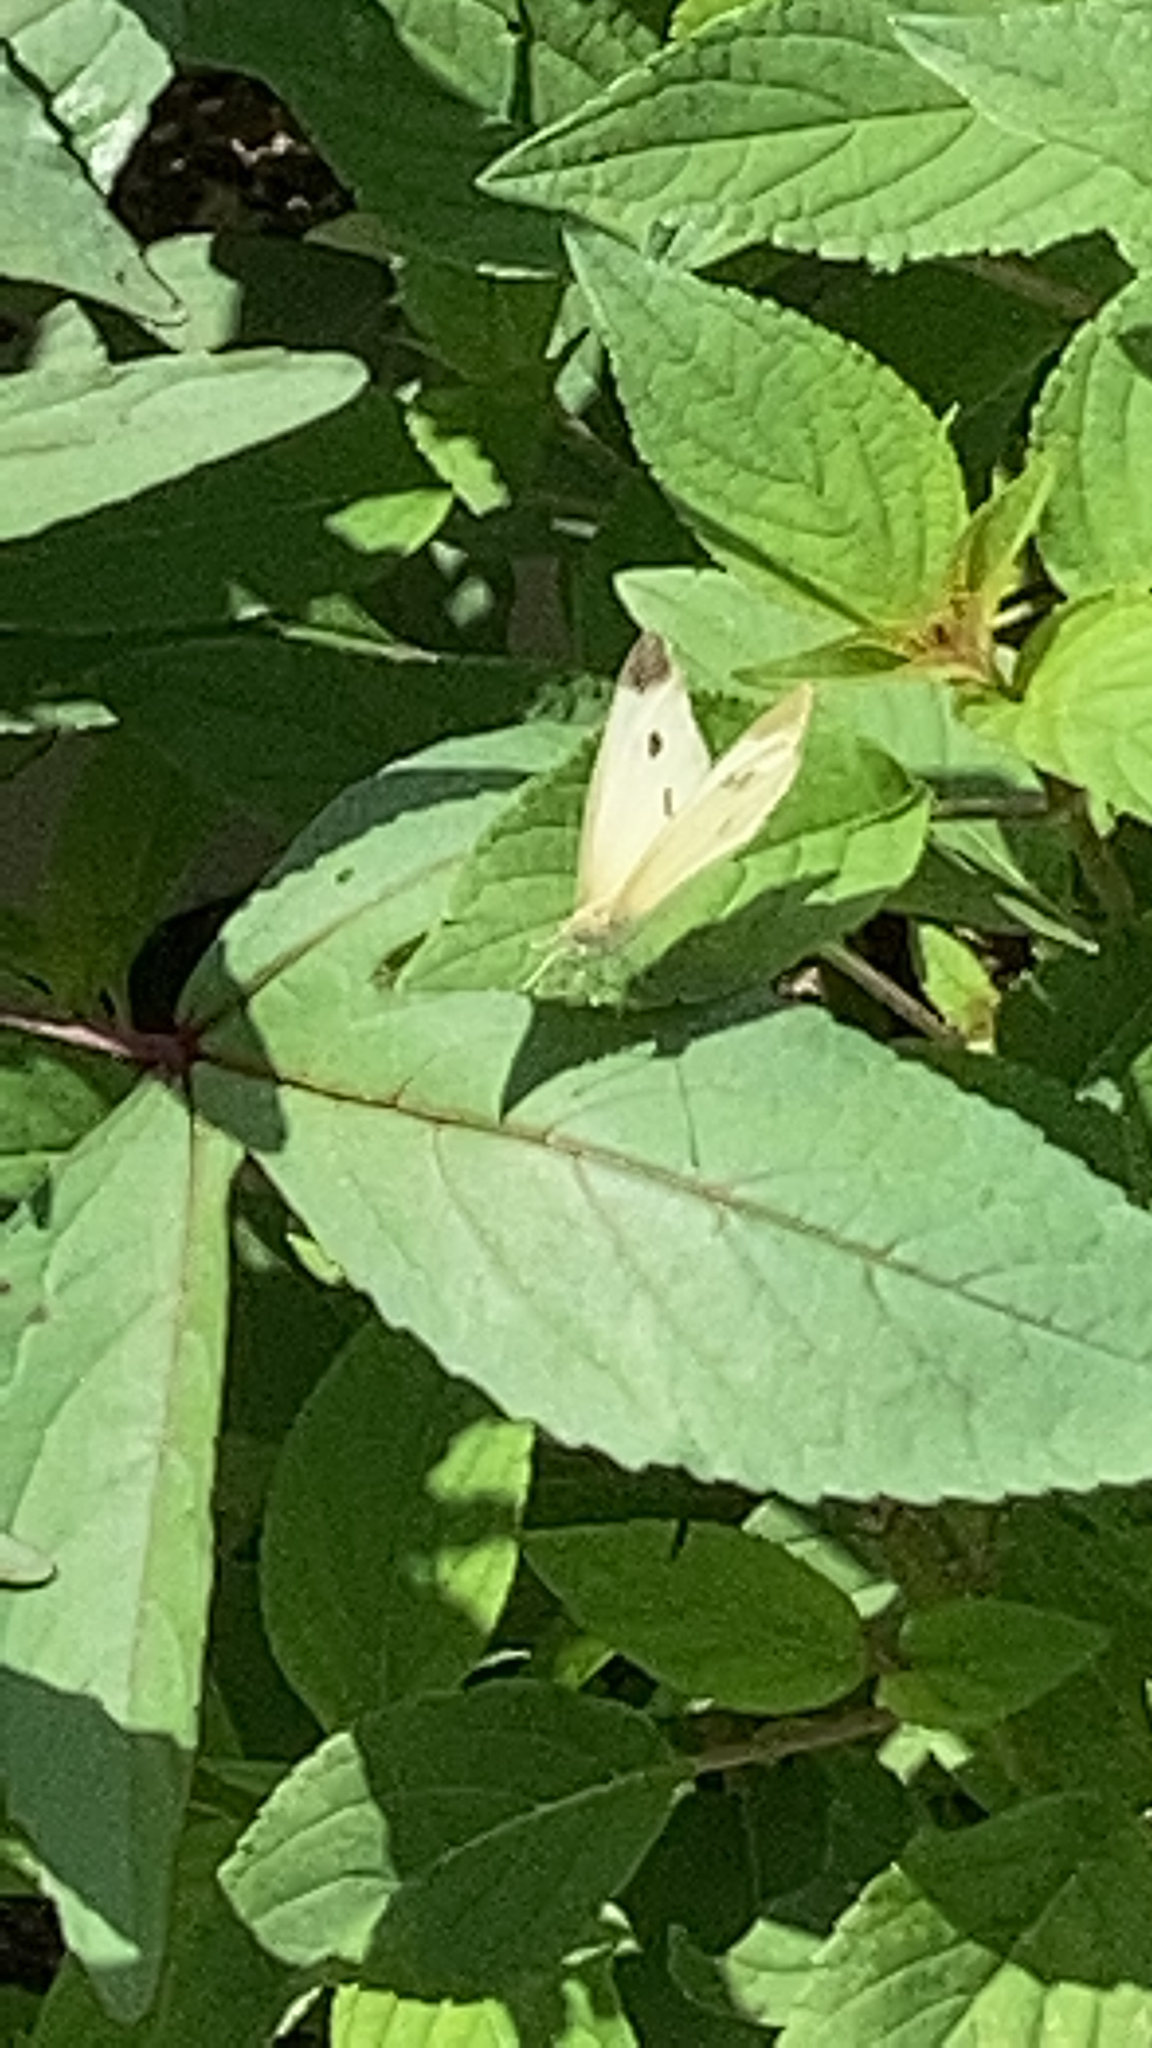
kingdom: Animalia
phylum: Arthropoda
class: Insecta
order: Lepidoptera
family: Pieridae
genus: Pieris
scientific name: Pieris rapae
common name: Small white
